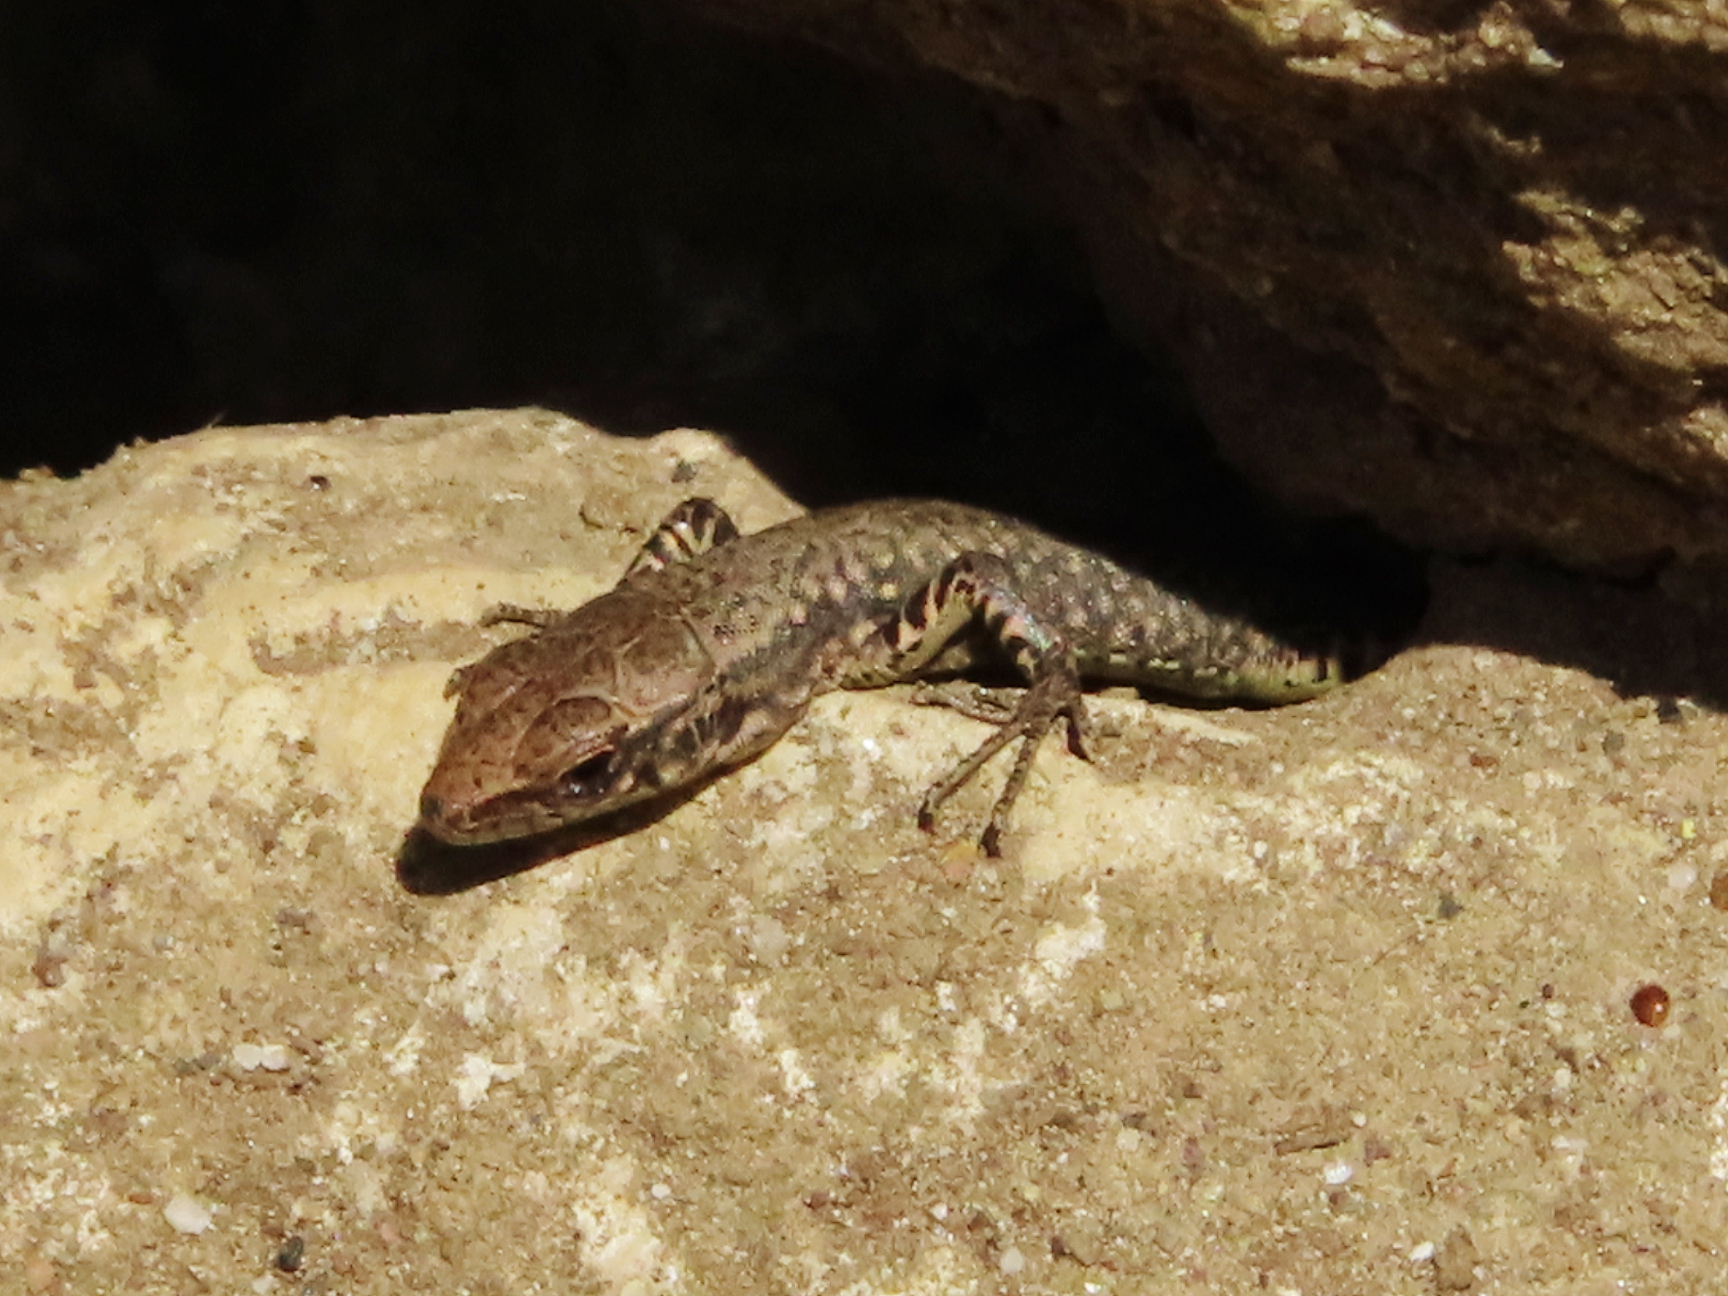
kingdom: Animalia
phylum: Chordata
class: Squamata
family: Lacertidae
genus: Darevskia
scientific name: Darevskia mixta
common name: Ajarian lizard
